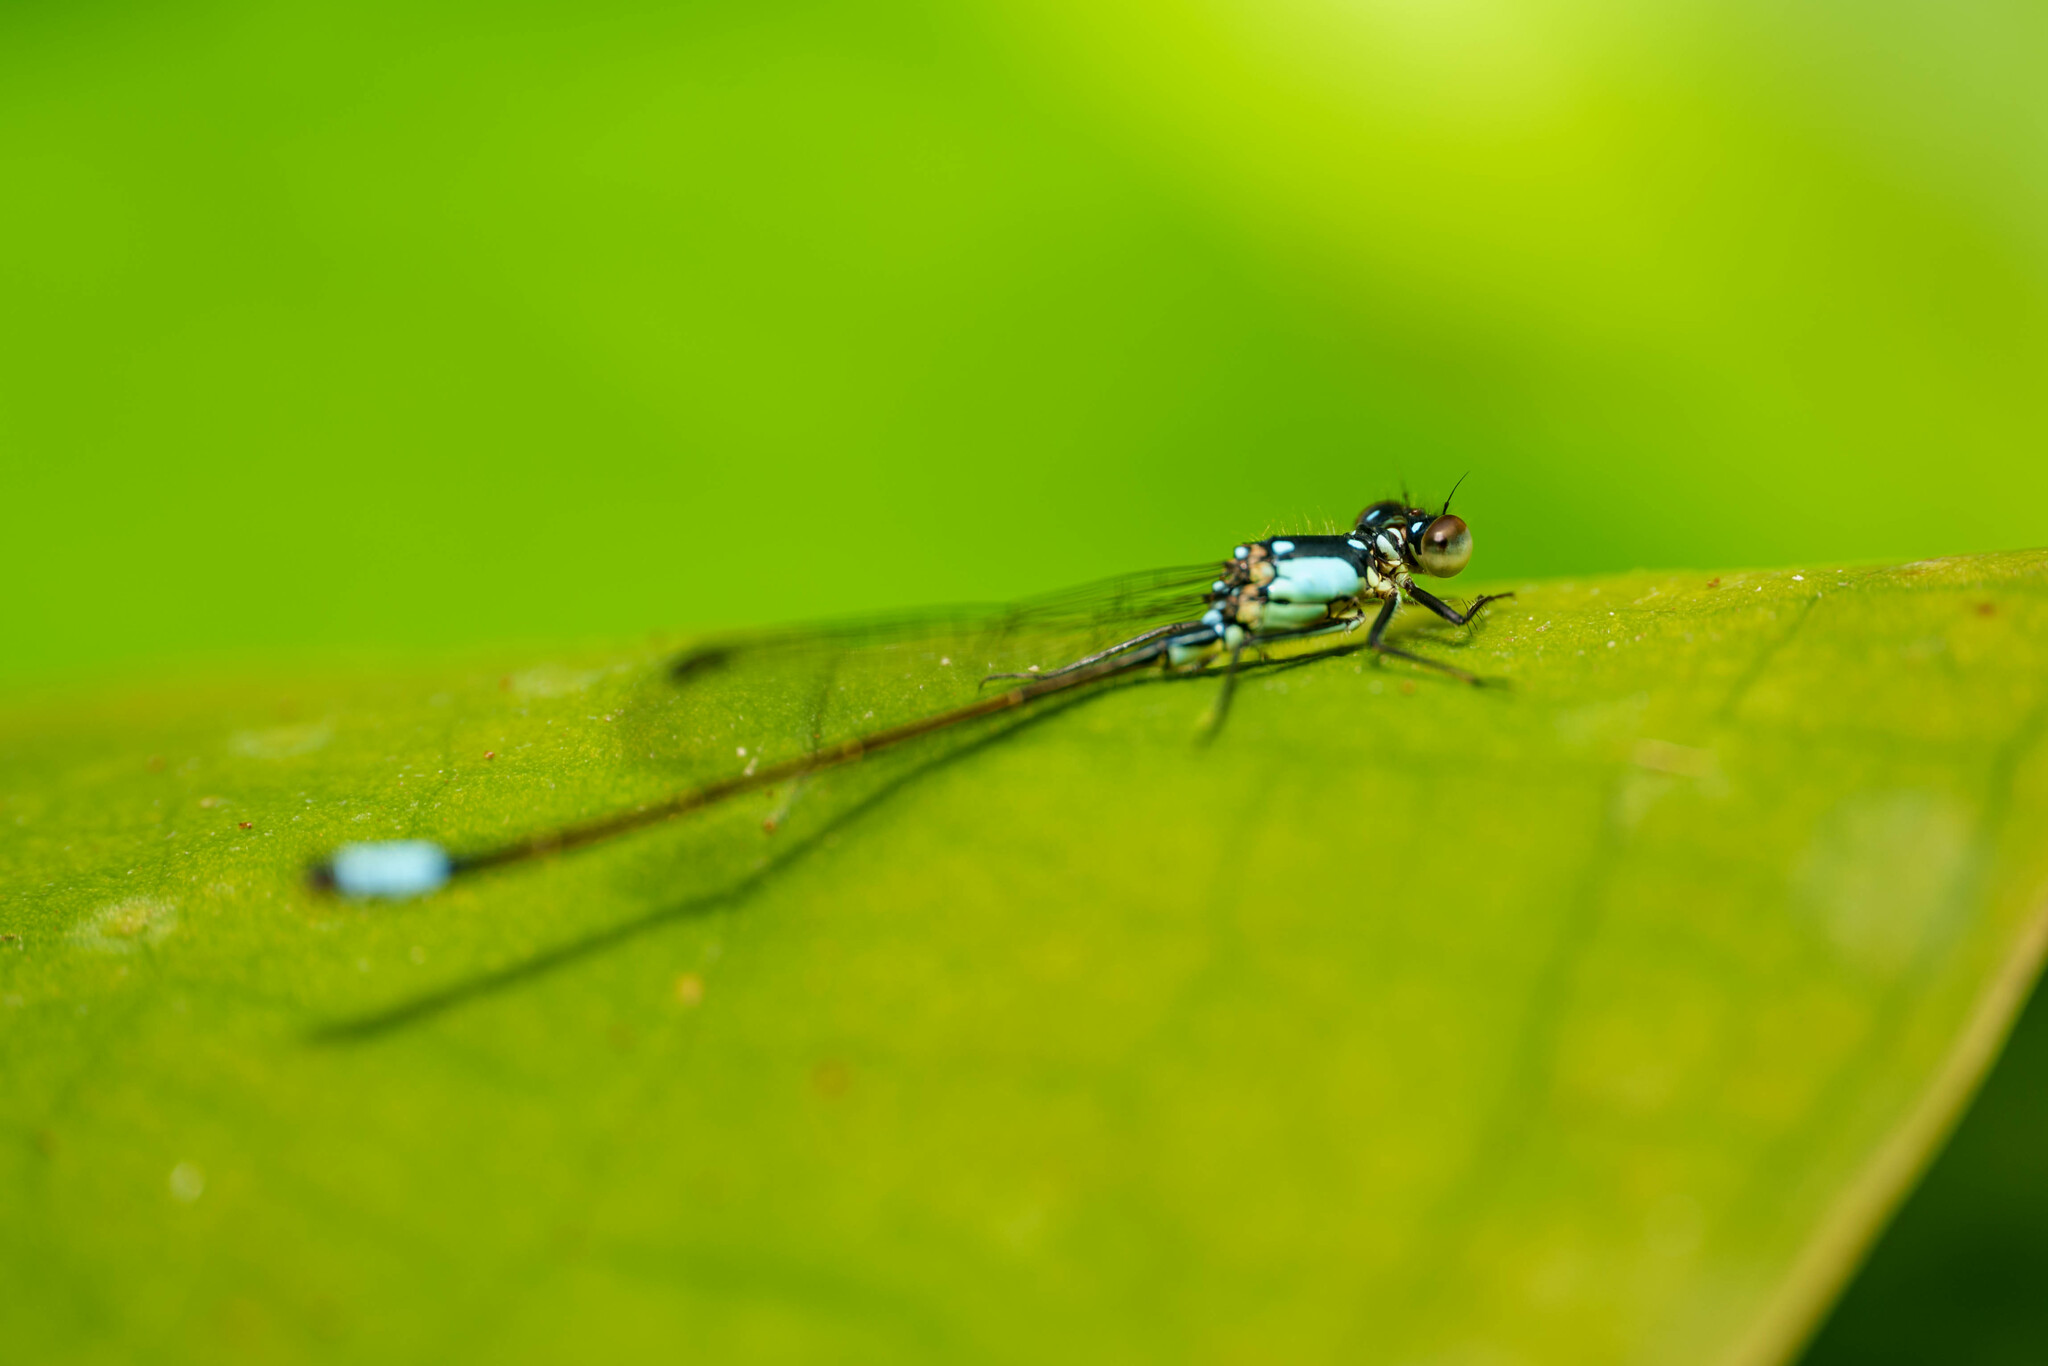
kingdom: Animalia
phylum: Arthropoda
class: Insecta
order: Odonata
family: Coenagrionidae
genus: Ischnura
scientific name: Ischnura cervula
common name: Pacific forktail
